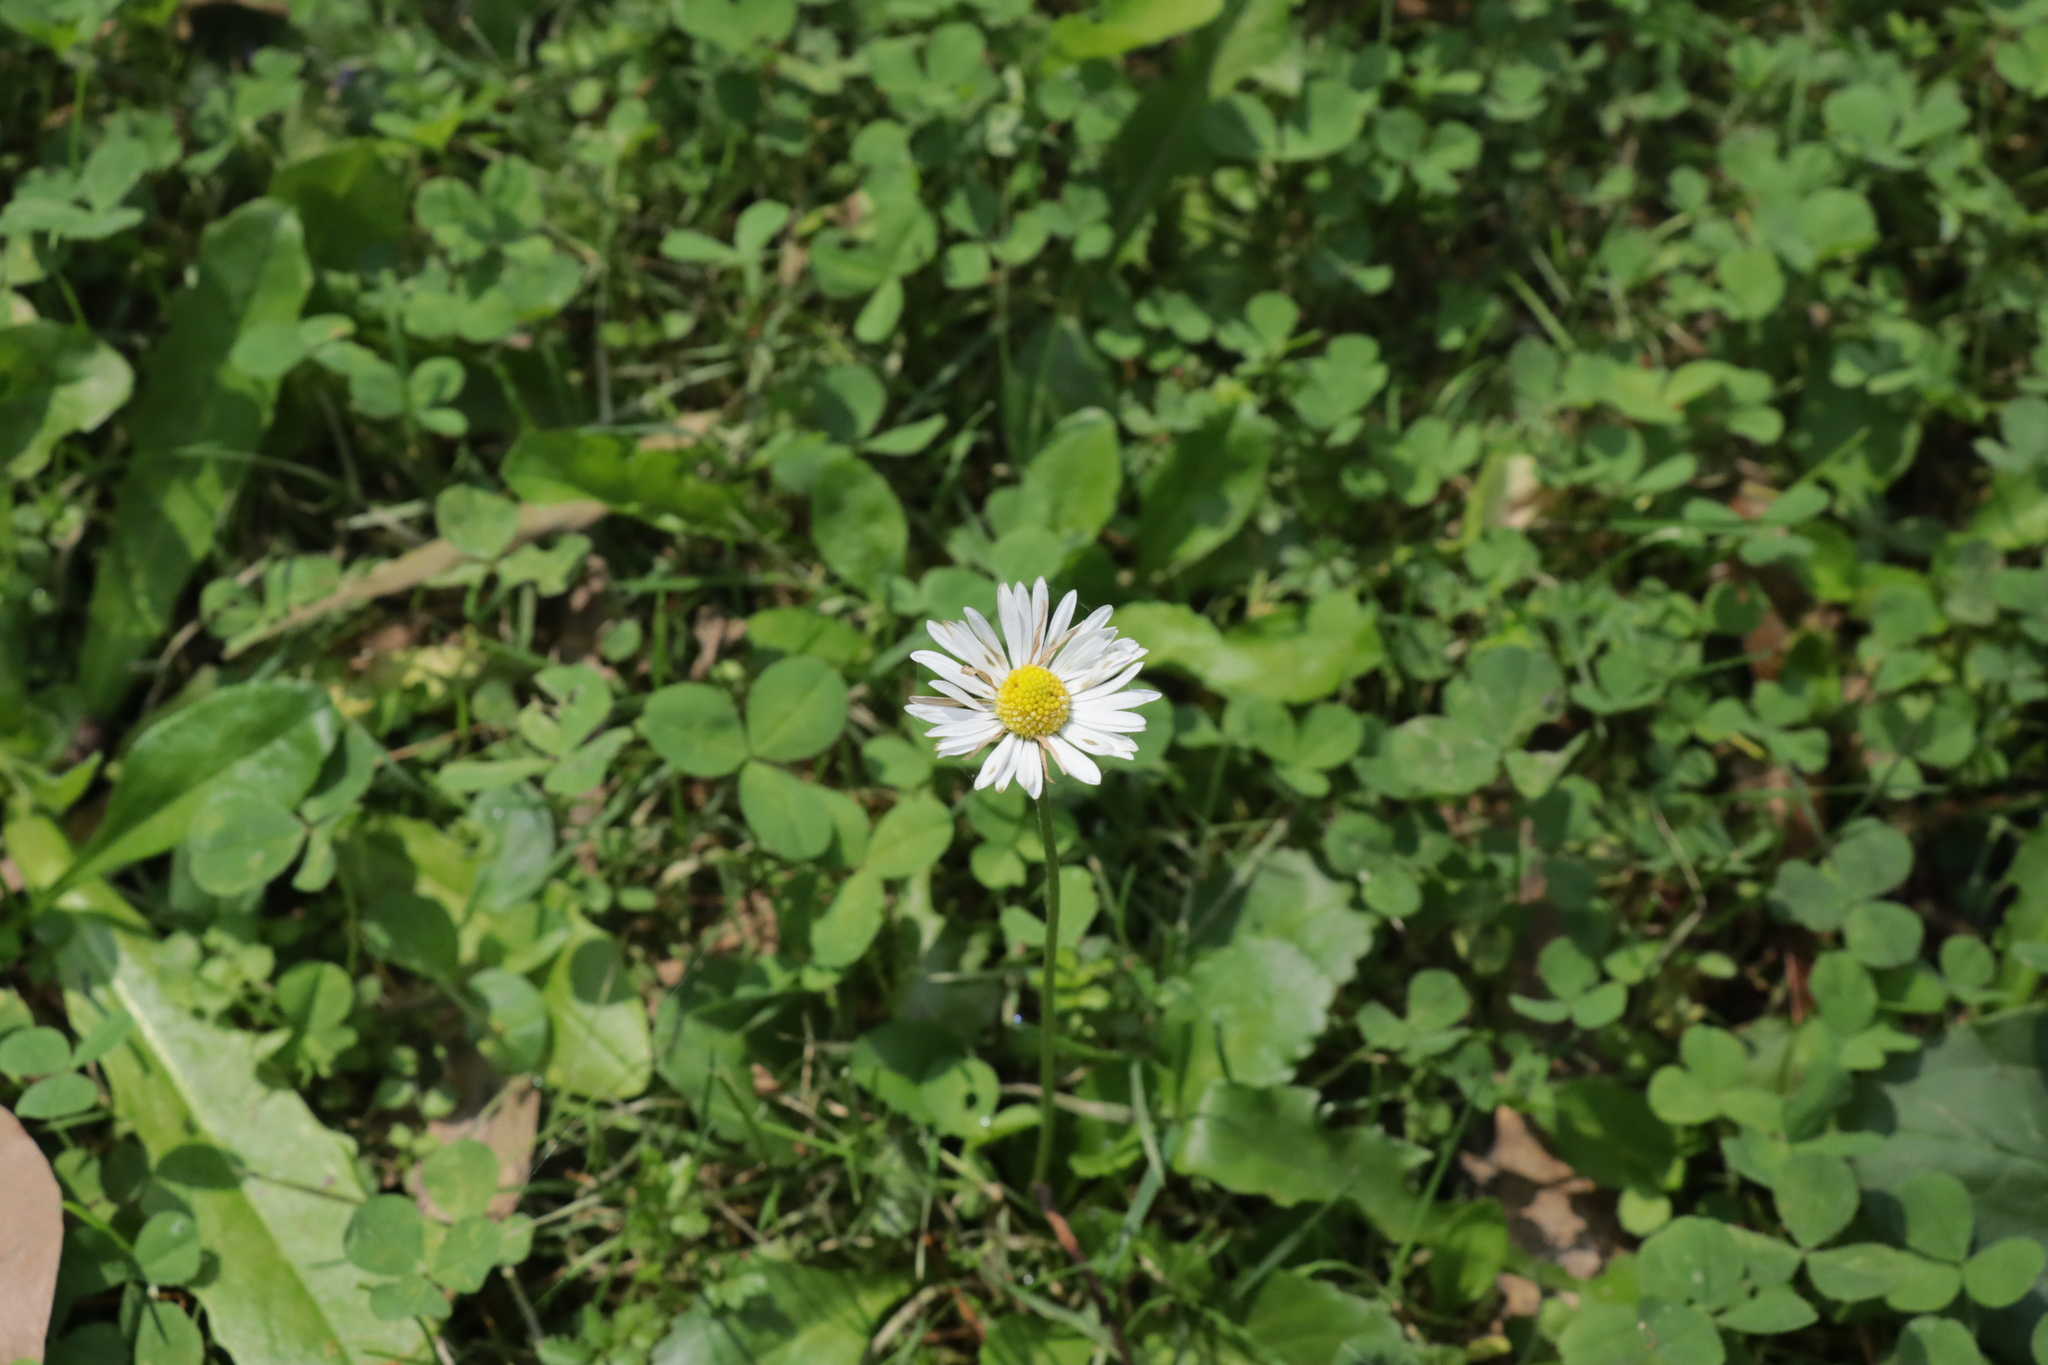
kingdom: Plantae
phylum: Tracheophyta
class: Magnoliopsida
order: Asterales
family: Asteraceae
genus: Bellis
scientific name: Bellis perennis
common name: Lawndaisy
